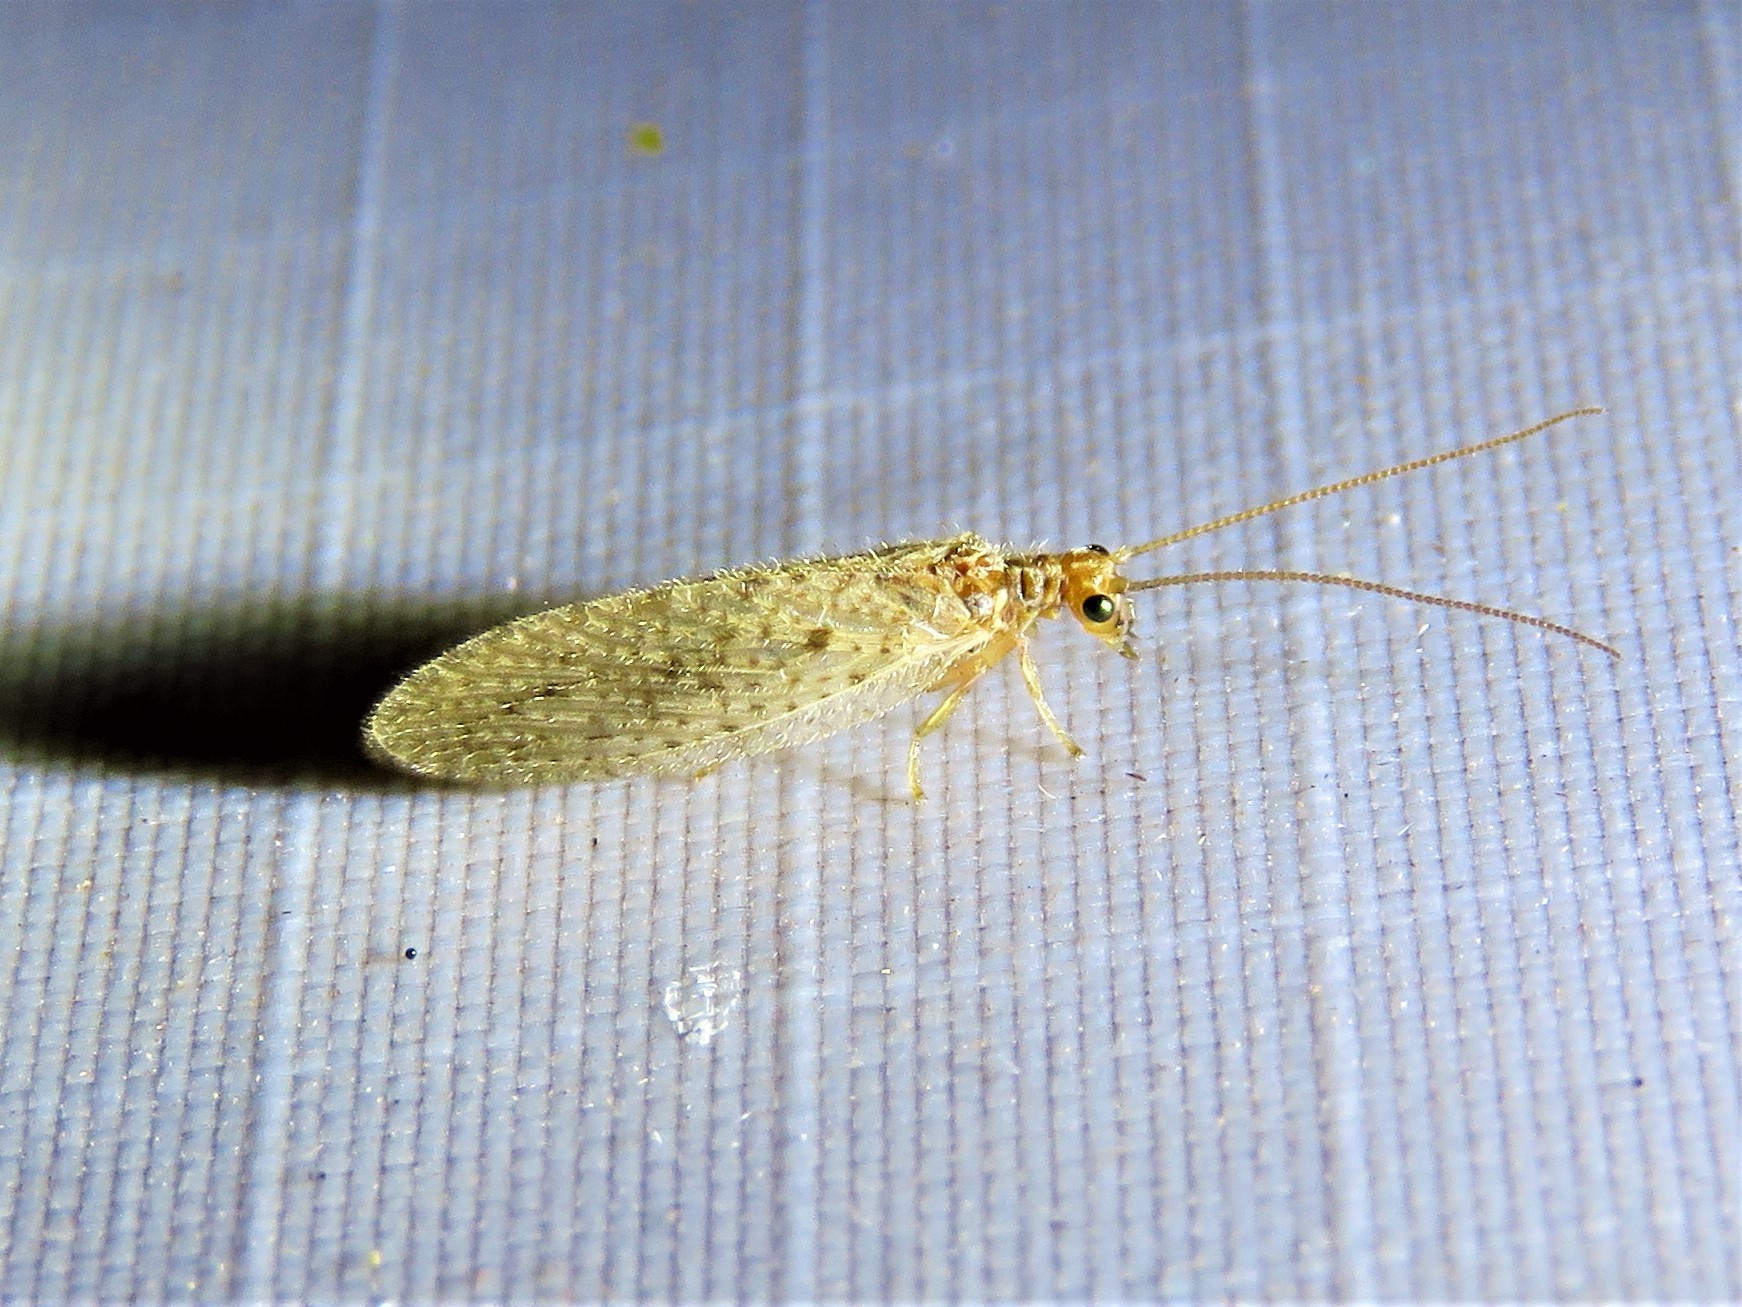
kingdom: Animalia
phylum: Arthropoda
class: Insecta
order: Neuroptera
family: Hemerobiidae
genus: Micromus
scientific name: Micromus subanticus
